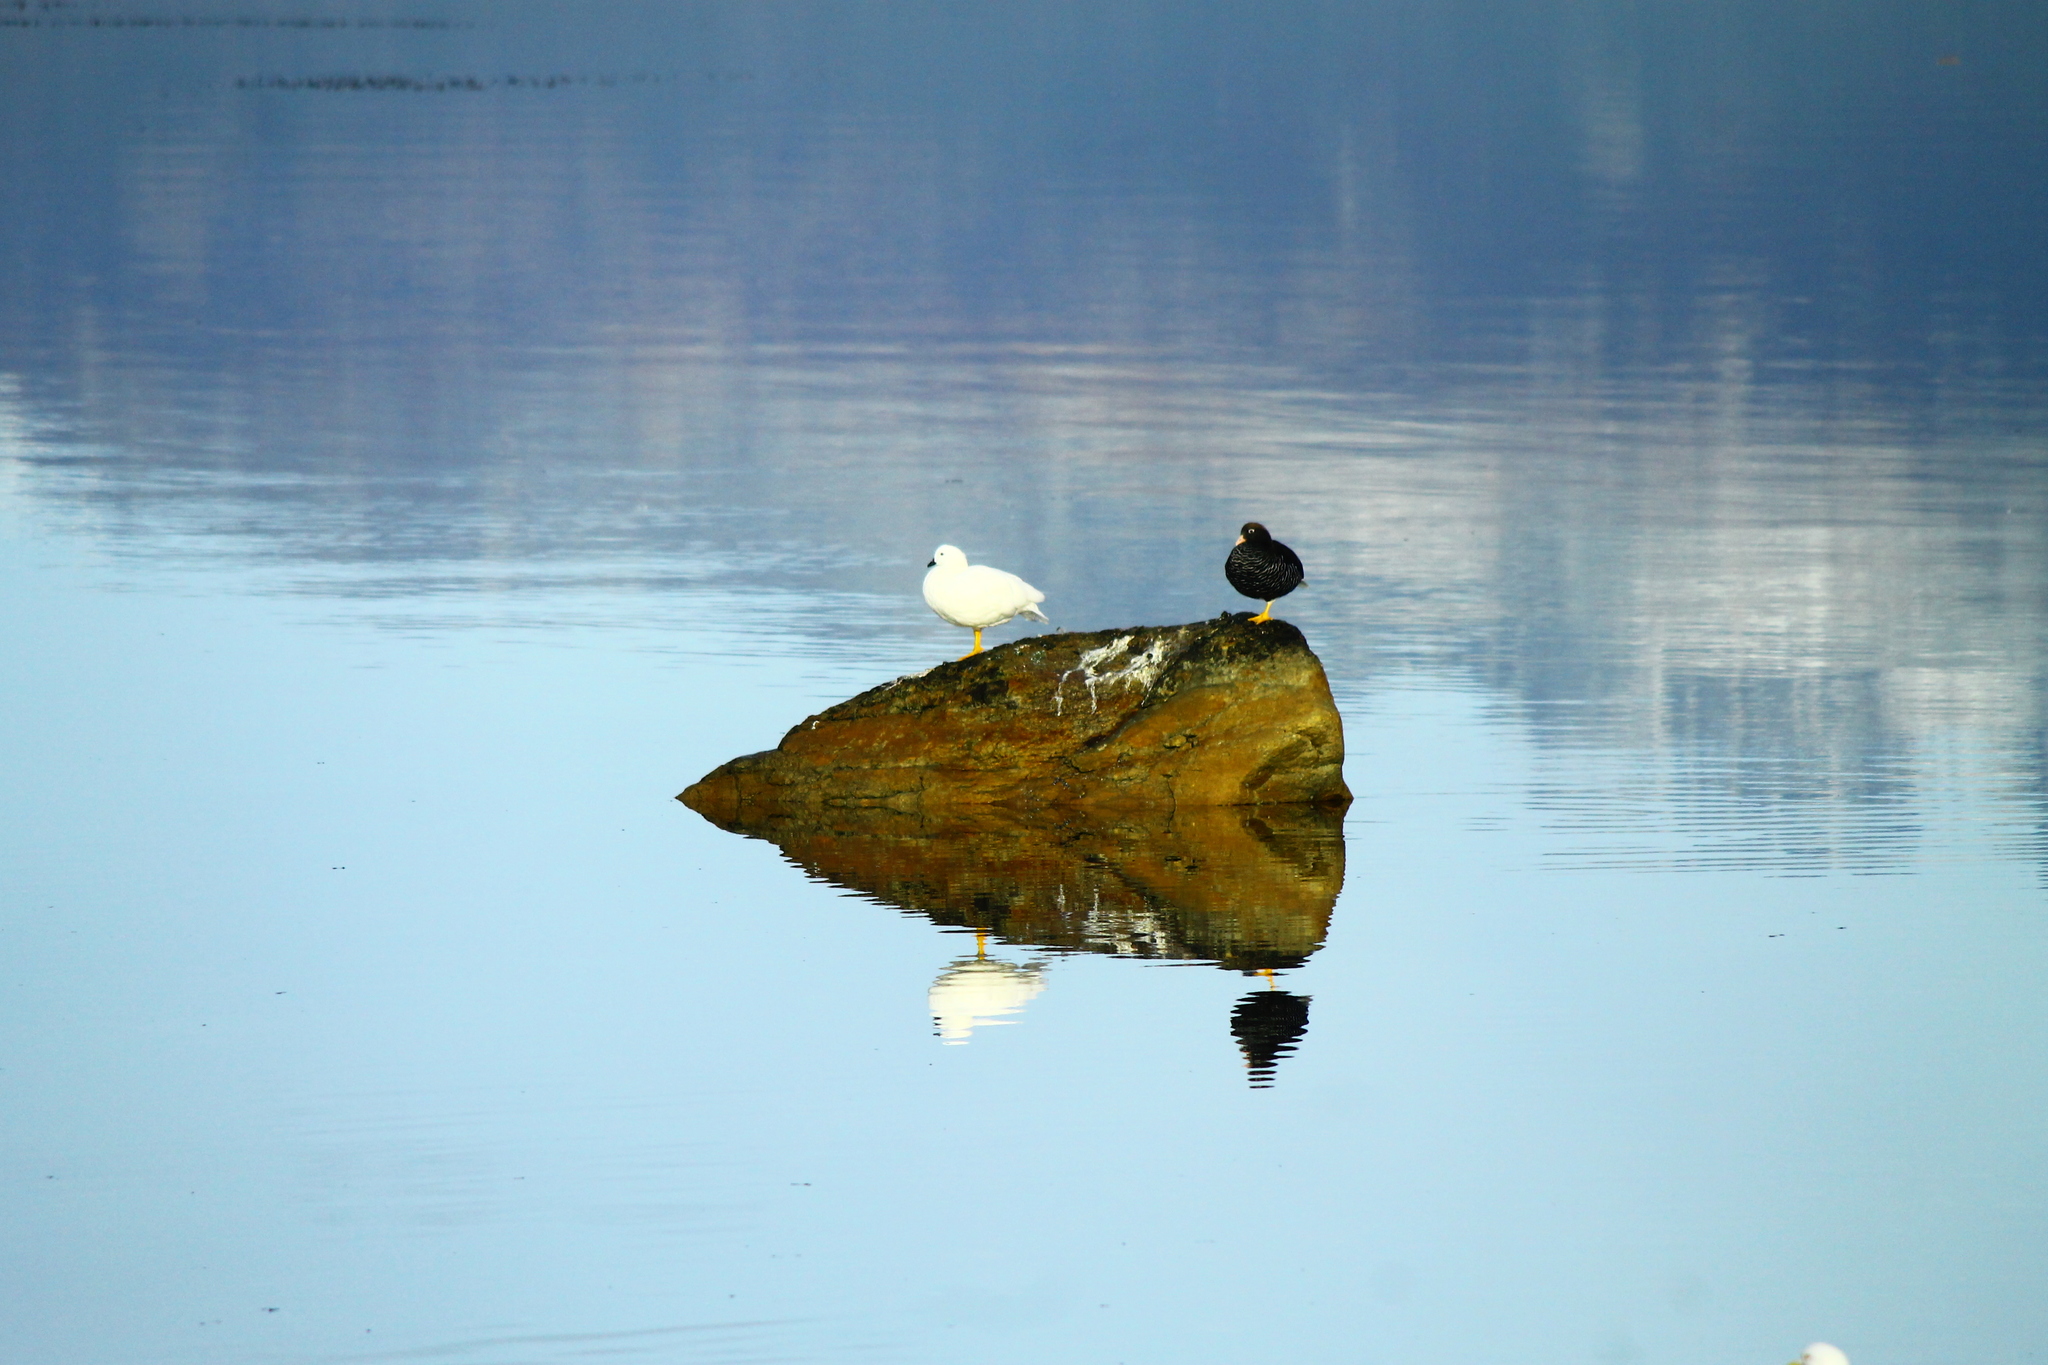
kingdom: Animalia
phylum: Chordata
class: Aves
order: Anseriformes
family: Anatidae
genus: Chloephaga
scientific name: Chloephaga hybrida
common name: Kelp goose
